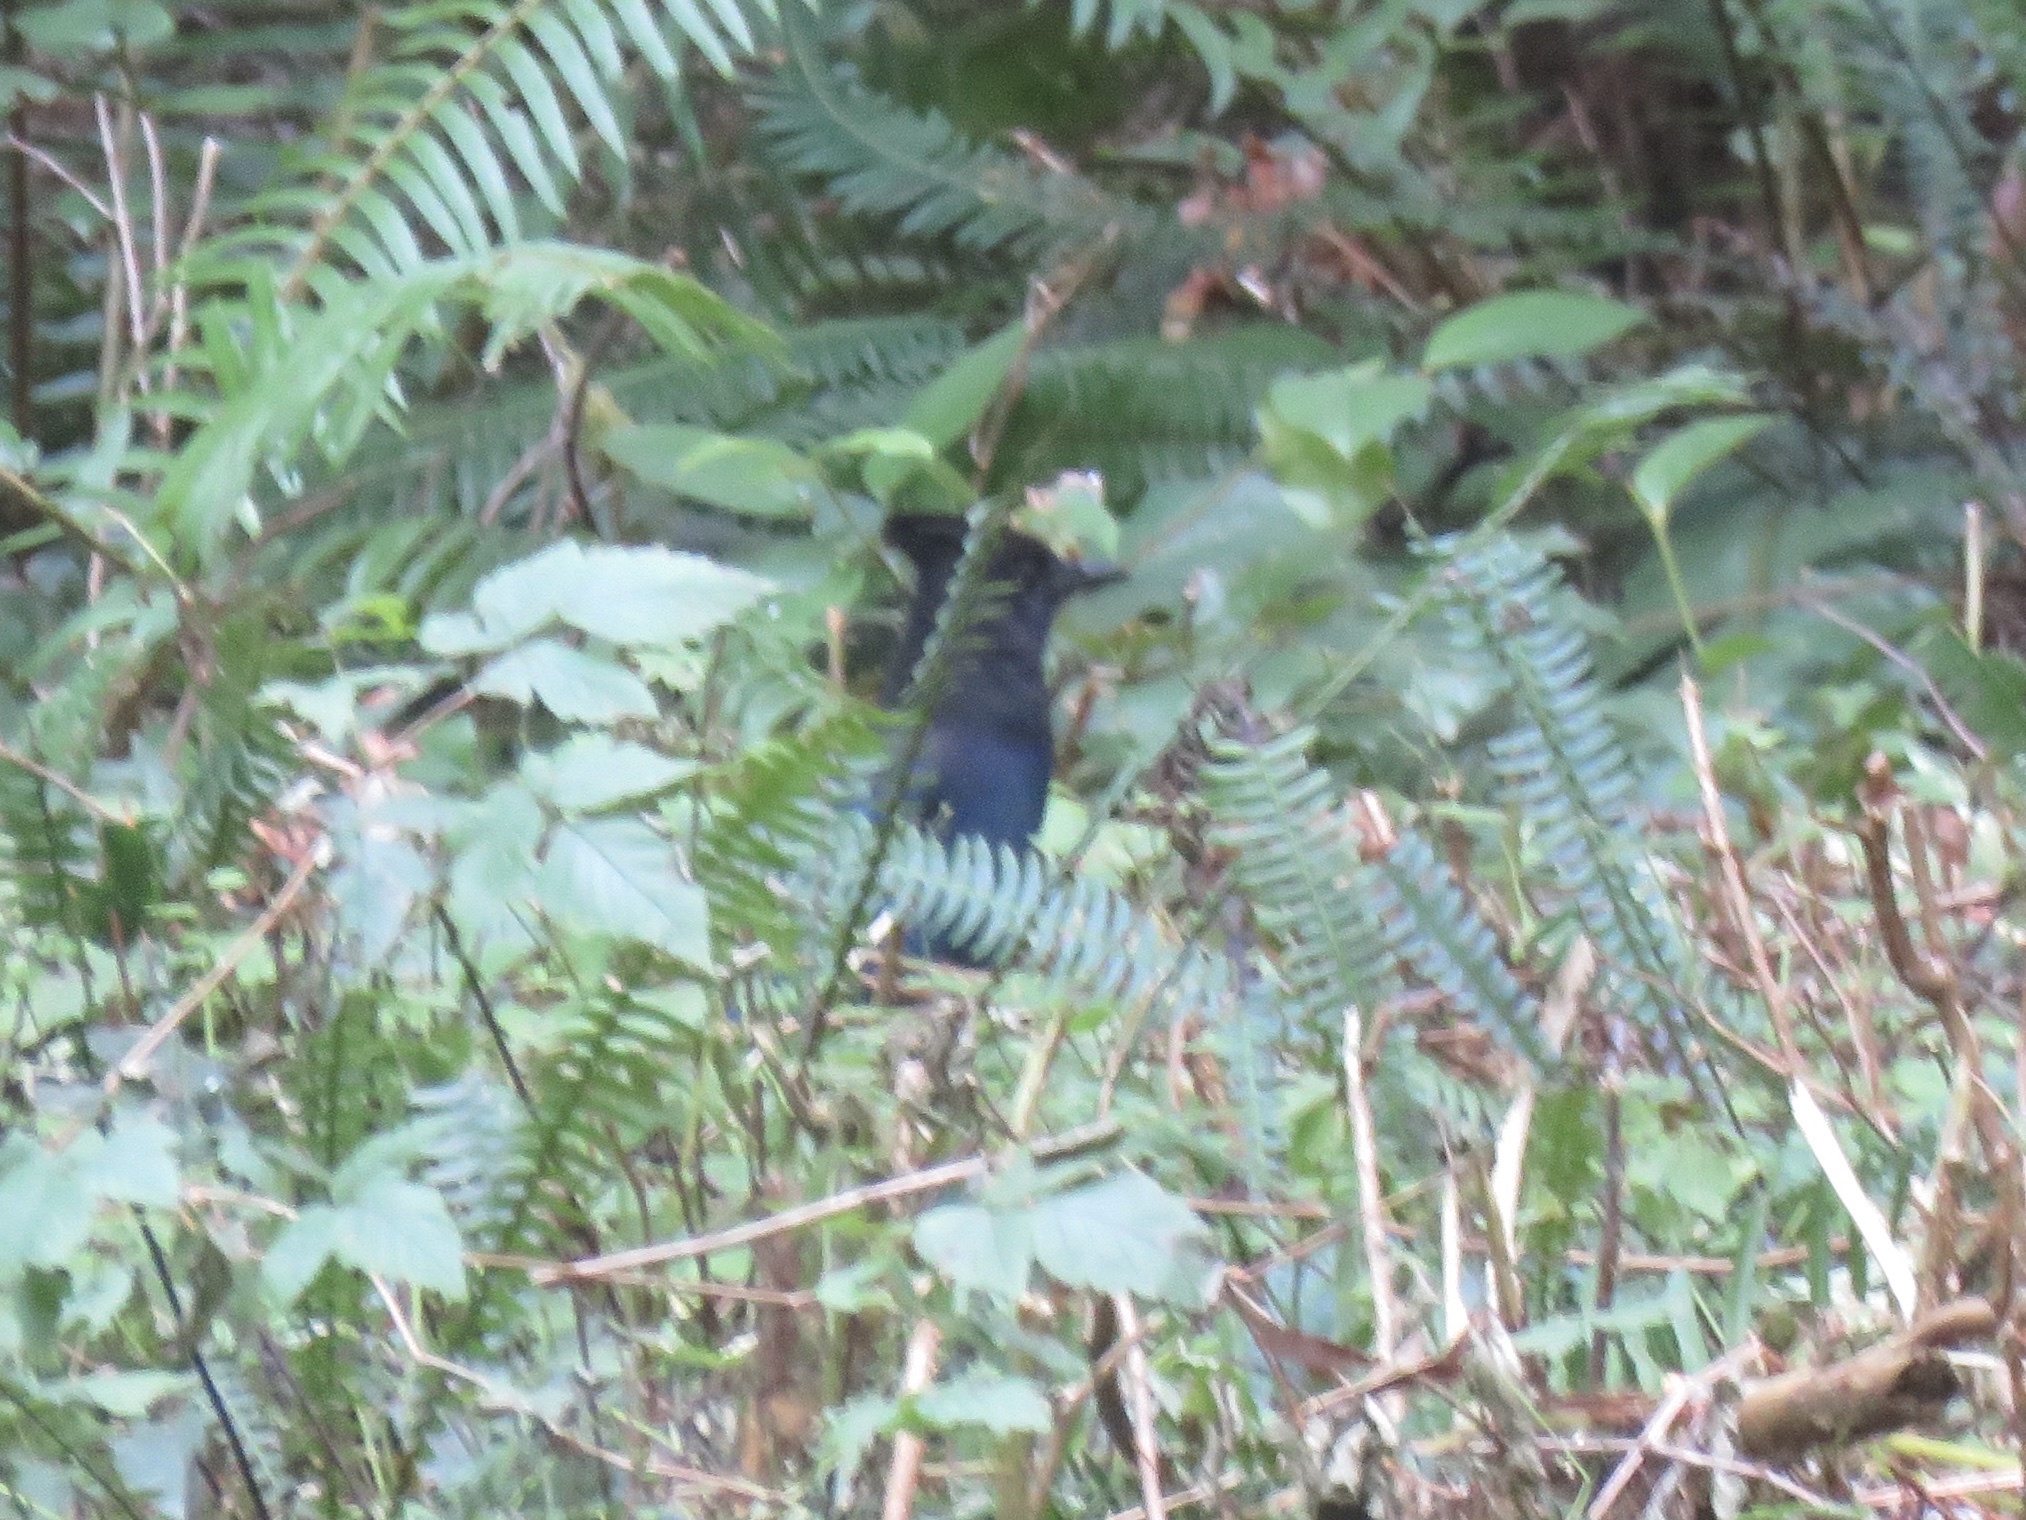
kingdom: Animalia
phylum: Chordata
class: Aves
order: Passeriformes
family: Corvidae
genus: Cyanocitta
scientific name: Cyanocitta stelleri
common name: Steller's jay
